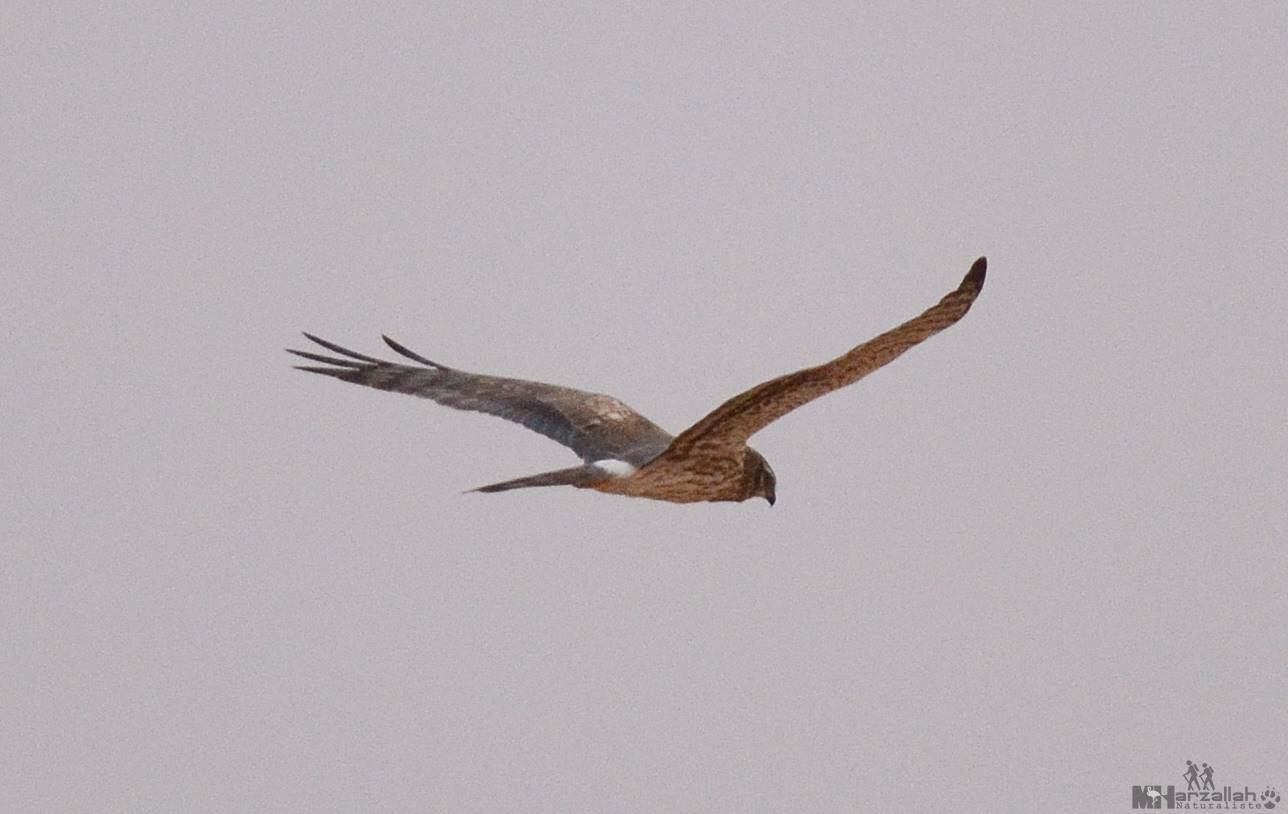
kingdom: Animalia
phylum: Chordata
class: Aves
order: Accipitriformes
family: Accipitridae
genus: Circus
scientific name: Circus pygargus
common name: Montagu's harrier
